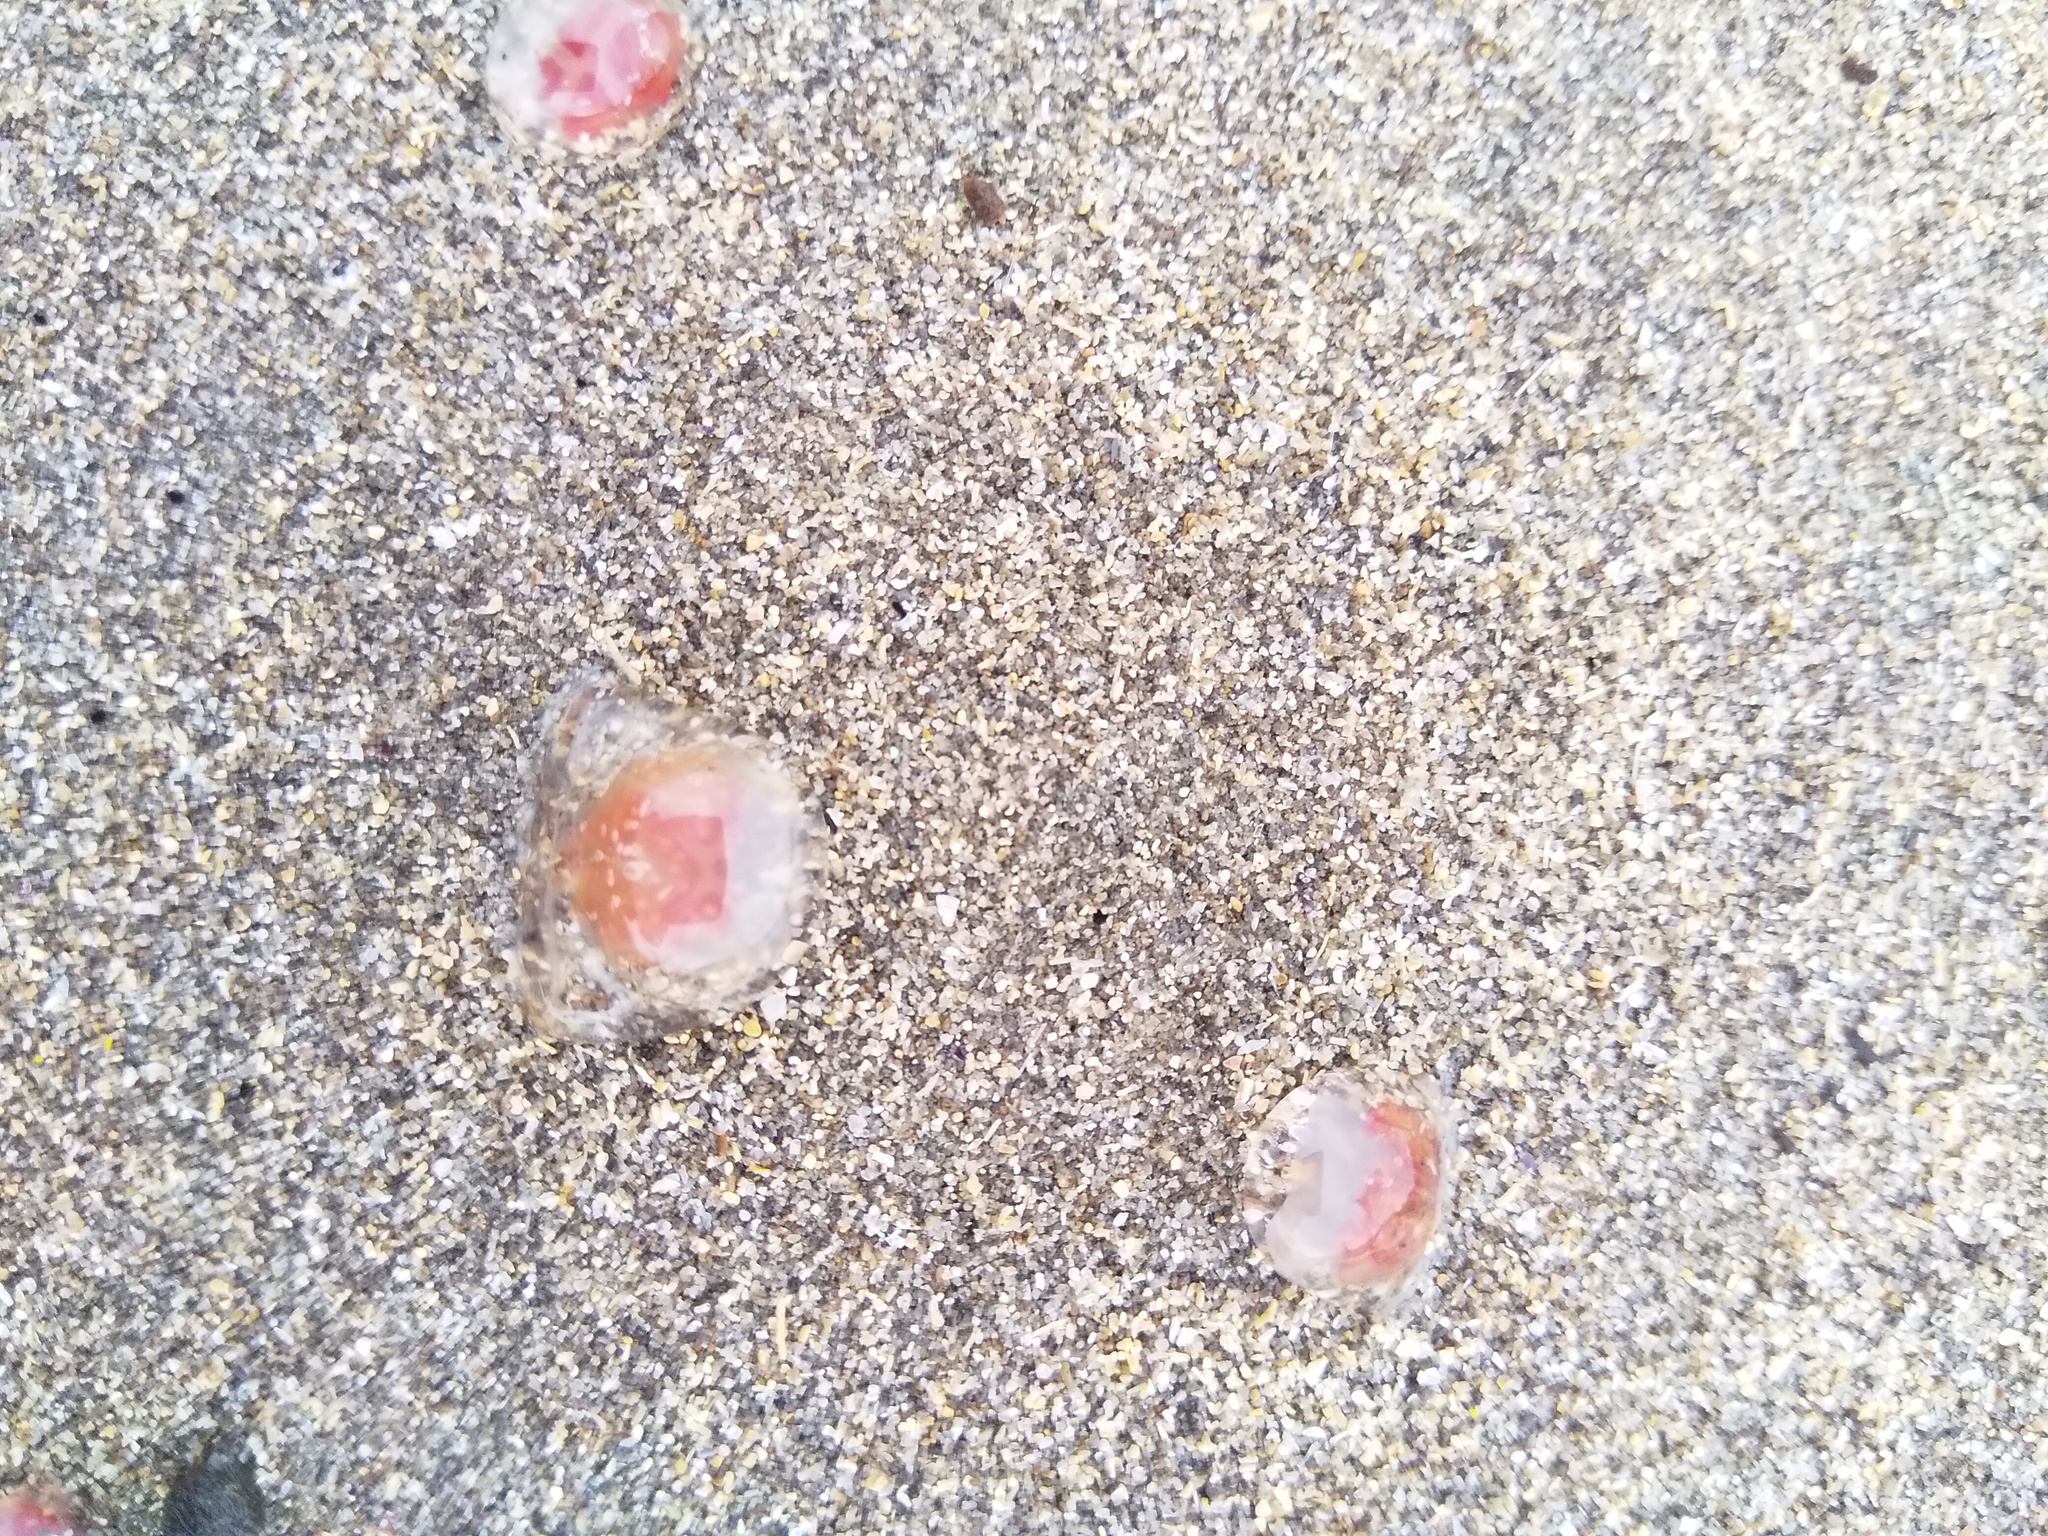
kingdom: Animalia
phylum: Cnidaria
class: Hydrozoa
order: Anthoathecata
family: Oceaniidae
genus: Turritopsis
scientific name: Turritopsis rubra
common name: Crimson jelly
